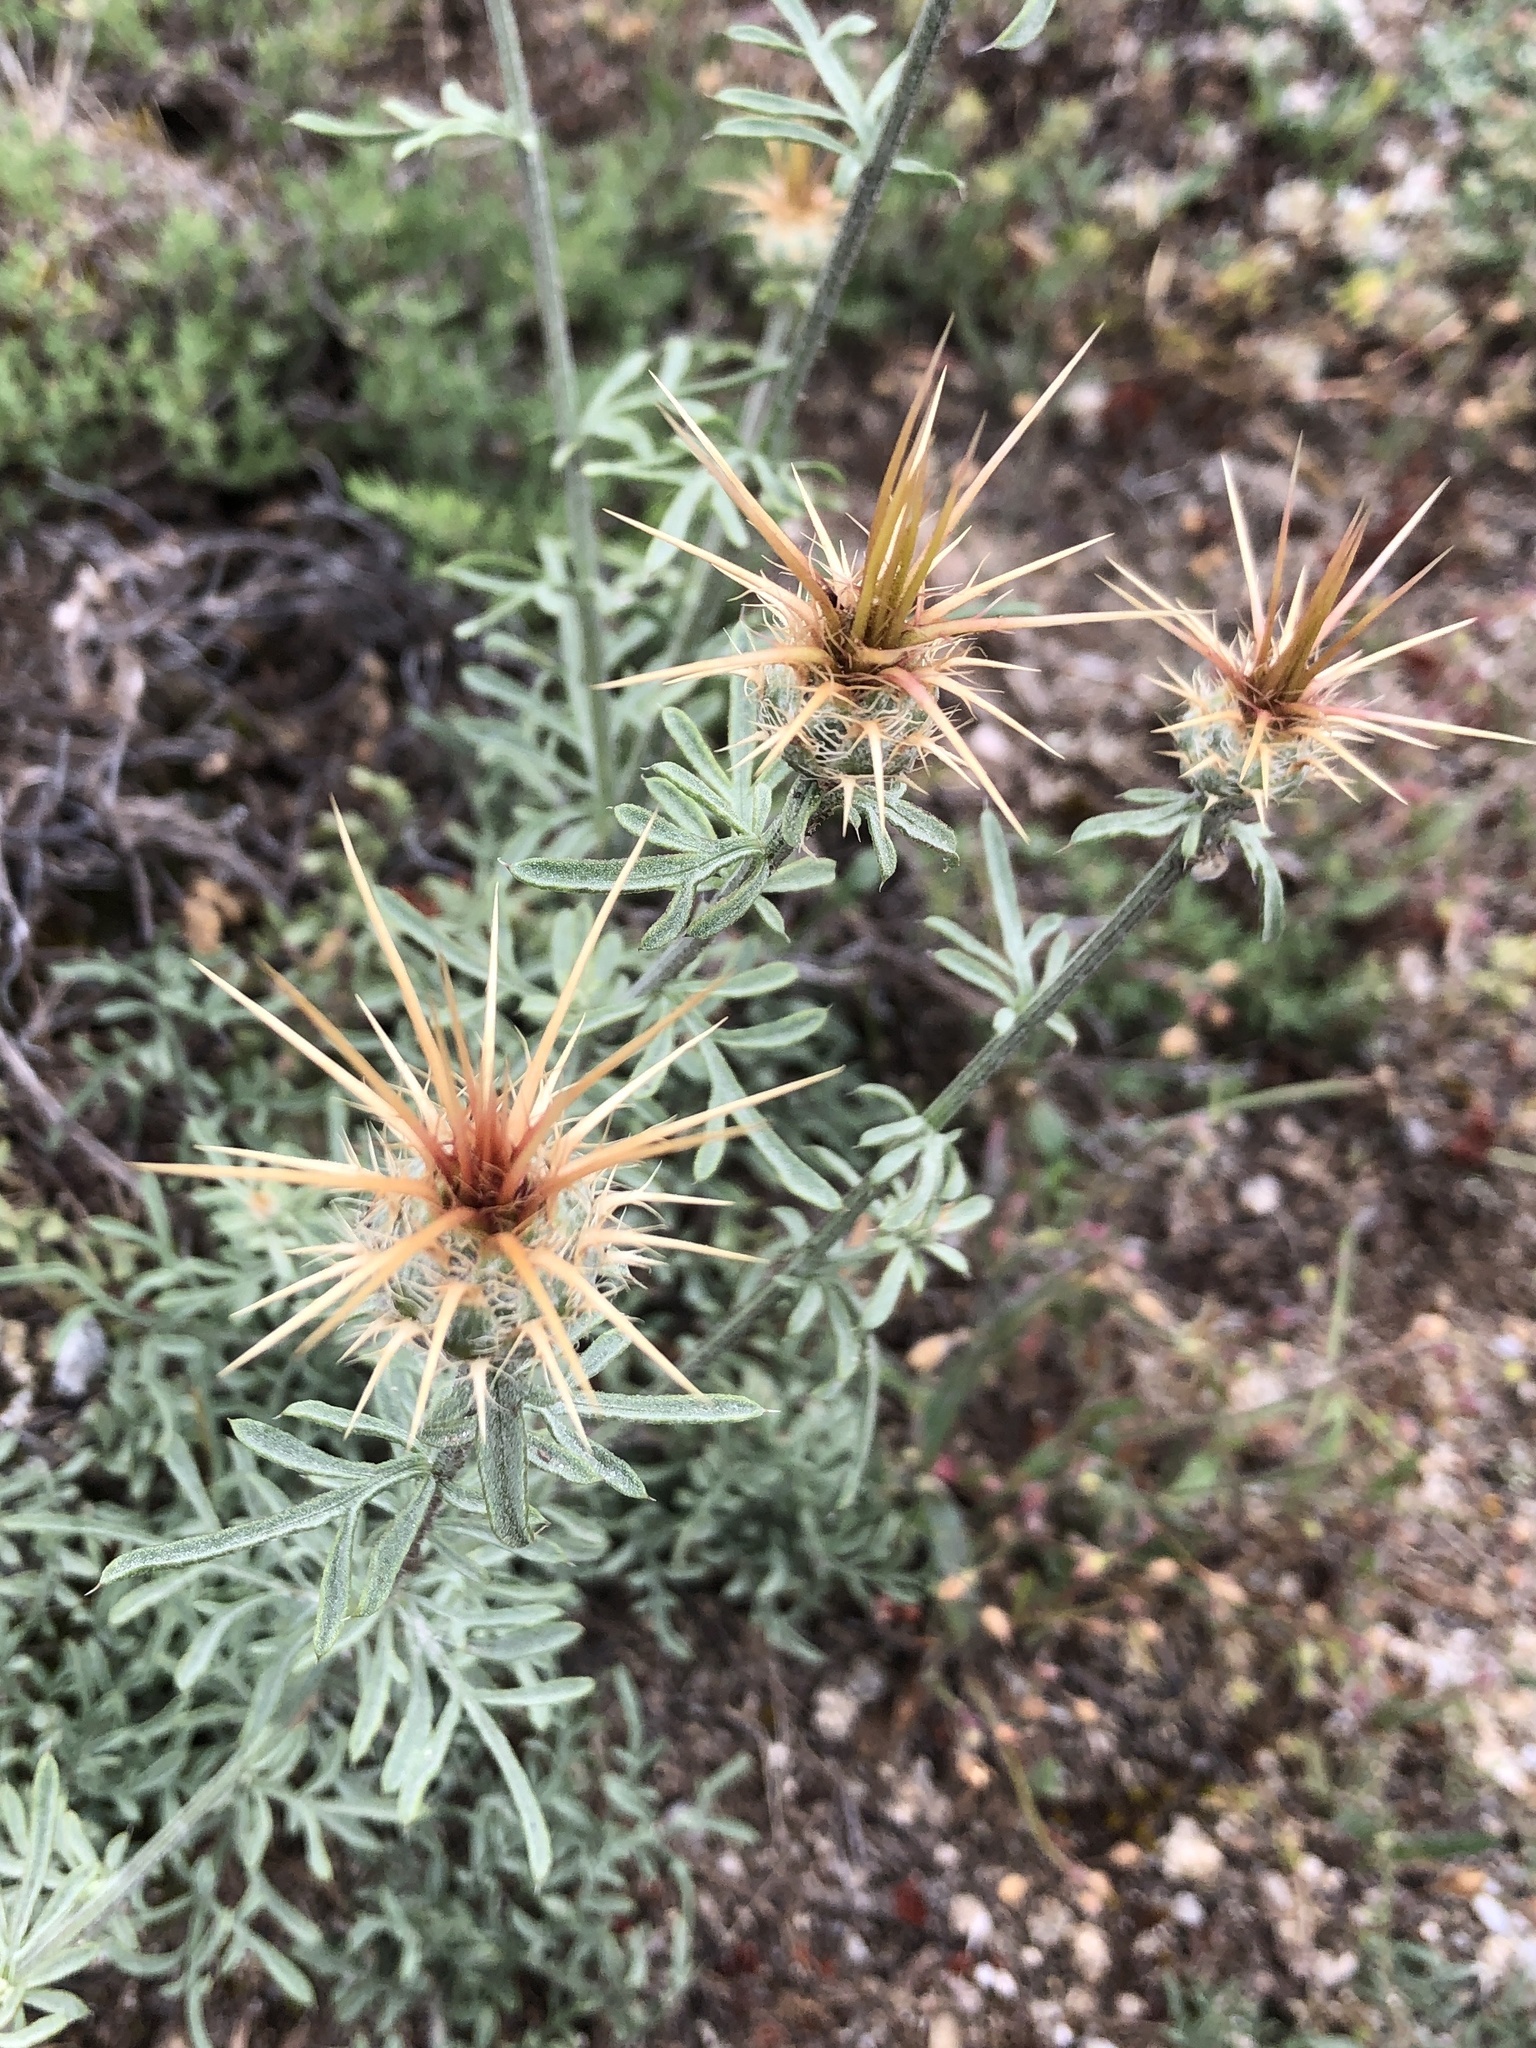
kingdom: Plantae
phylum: Tracheophyta
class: Magnoliopsida
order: Asterales
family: Asteraceae
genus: Centaurea
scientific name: Centaurea ornata
